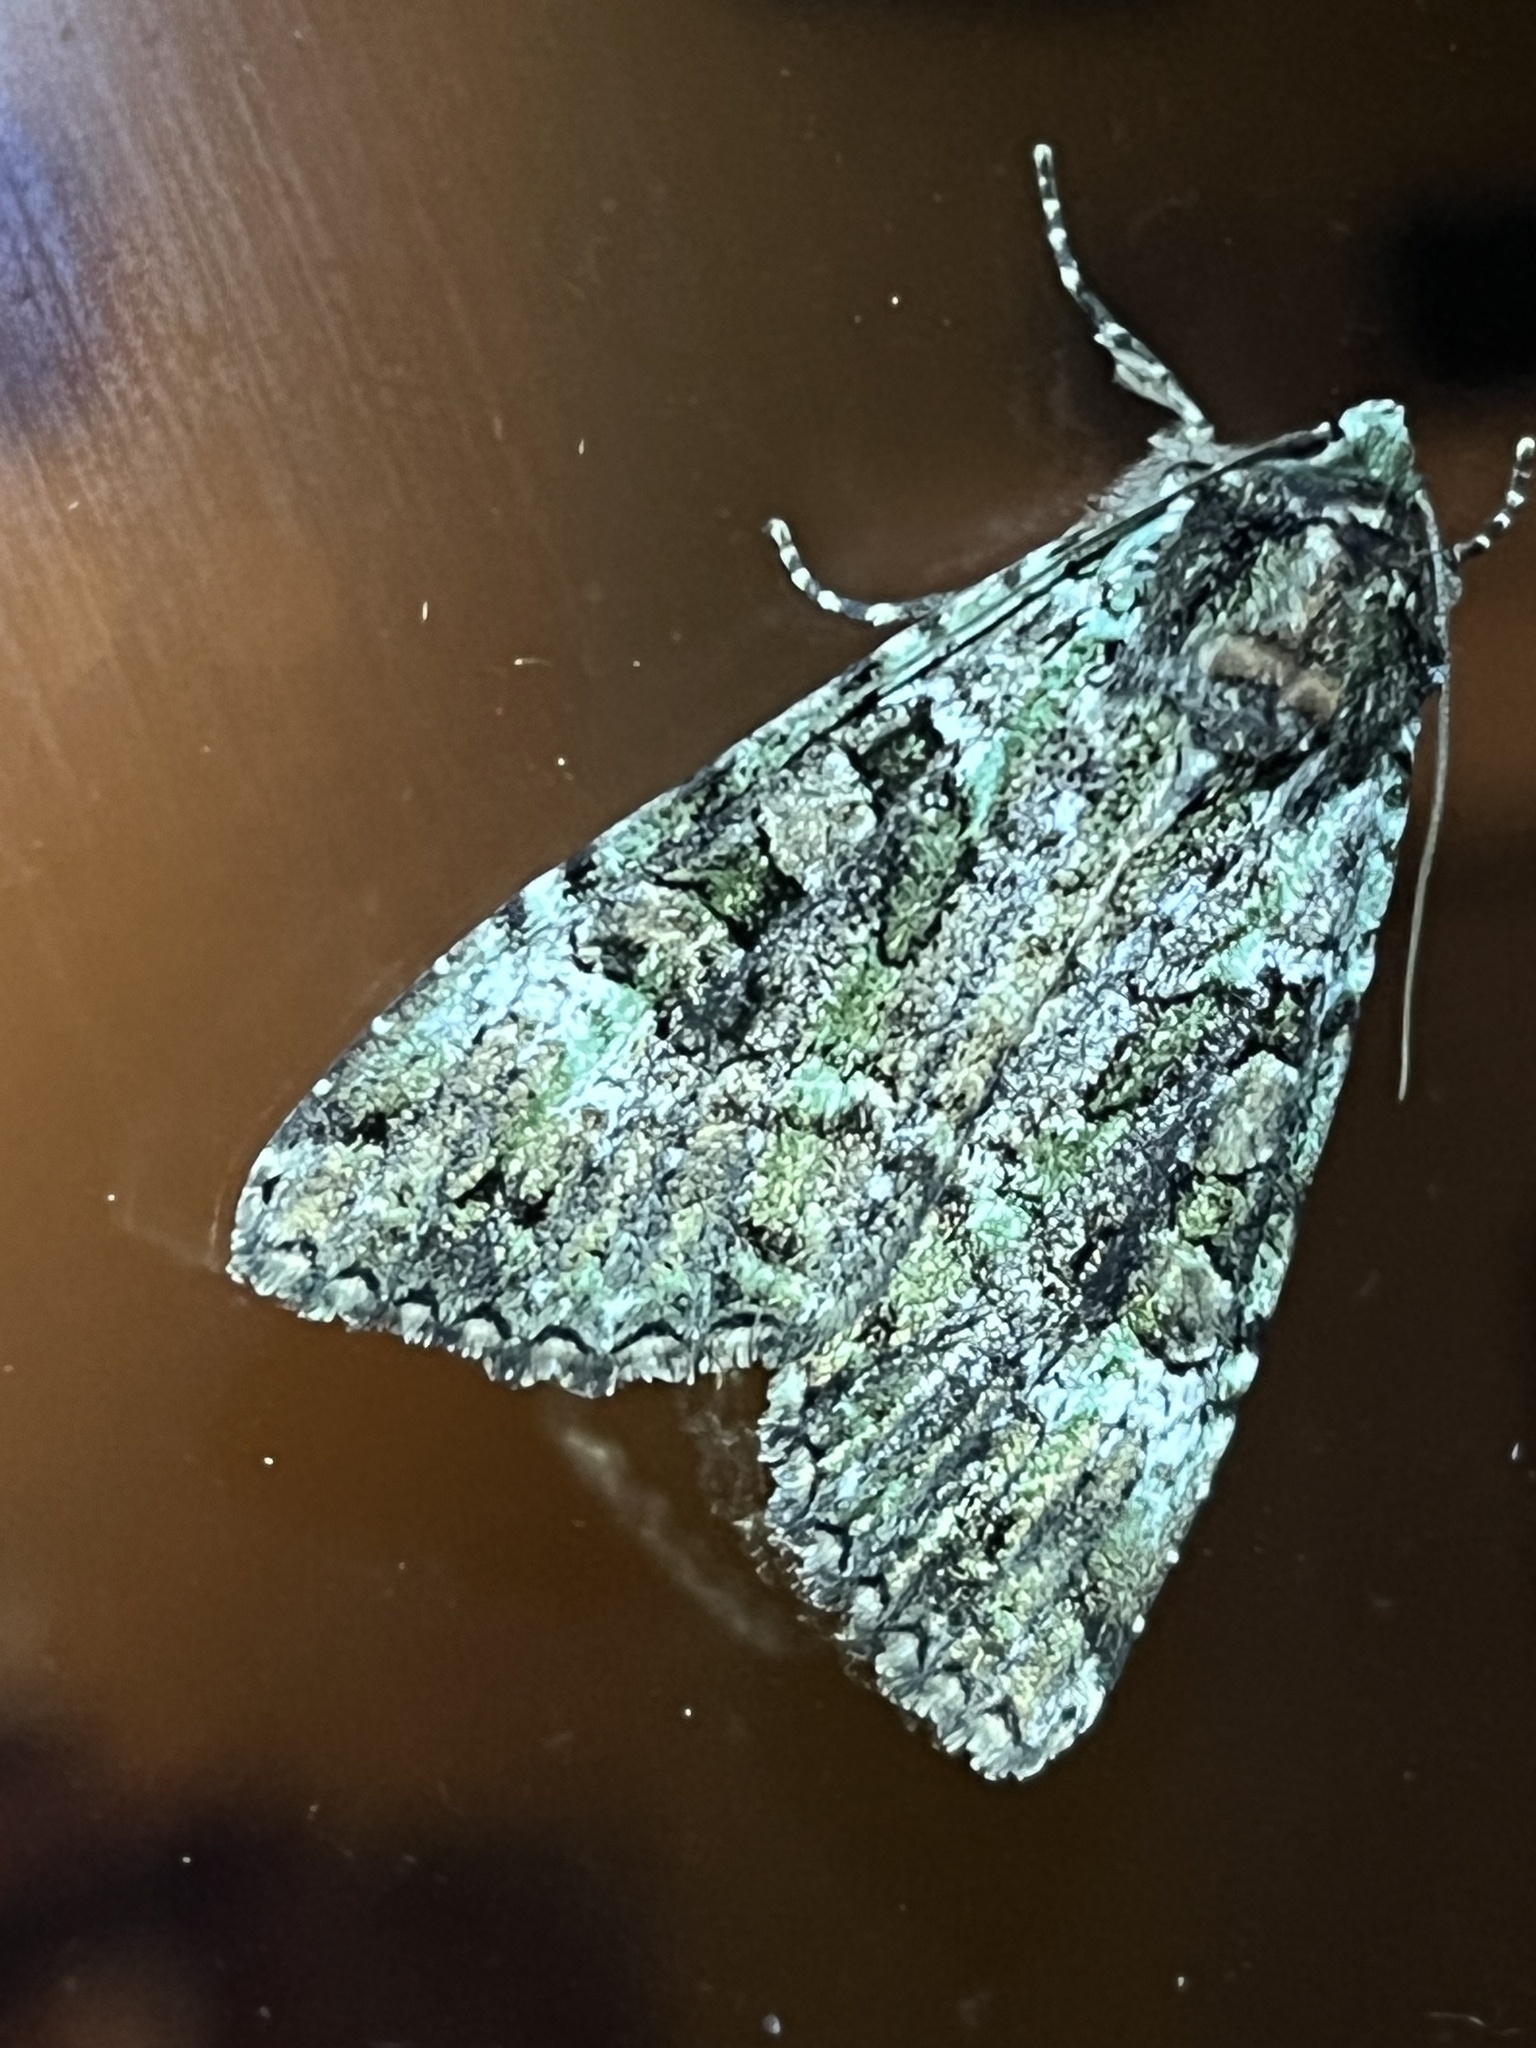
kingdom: Animalia
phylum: Arthropoda
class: Insecta
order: Lepidoptera
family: Noctuidae
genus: Anaplectoides
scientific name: Anaplectoides prasina
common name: Green arches
